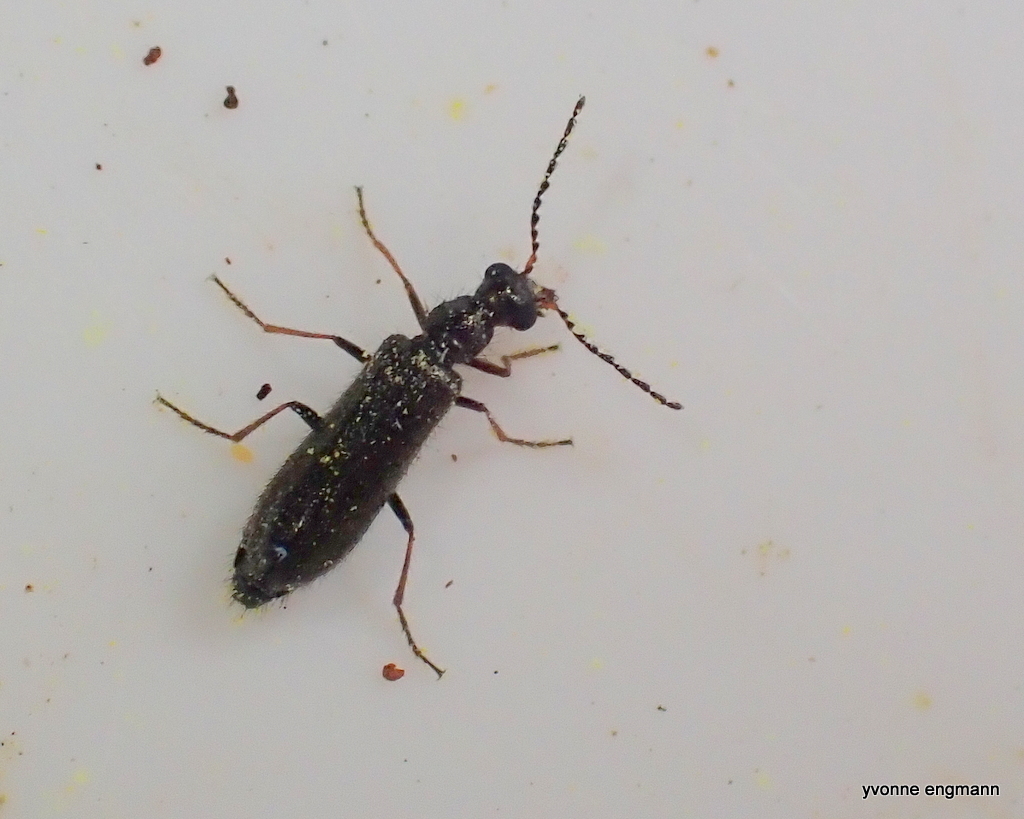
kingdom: Animalia
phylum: Arthropoda
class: Insecta
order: Coleoptera
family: Melyridae
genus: Dasytes
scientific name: Dasytes plumbeus
